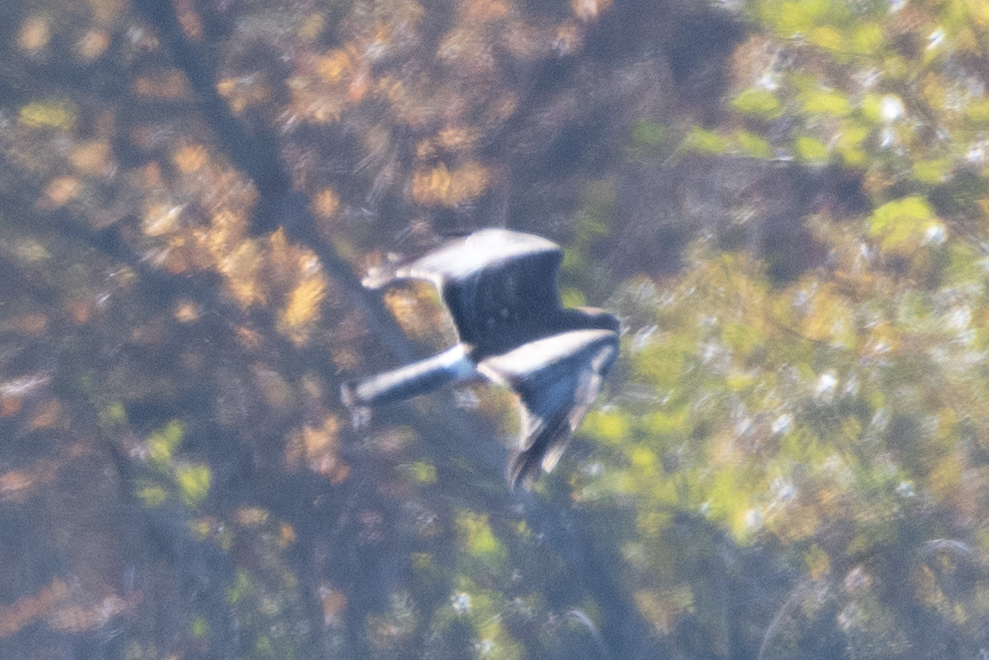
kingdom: Animalia
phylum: Chordata
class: Aves
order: Accipitriformes
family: Accipitridae
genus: Circus
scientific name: Circus cyaneus
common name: Hen harrier
